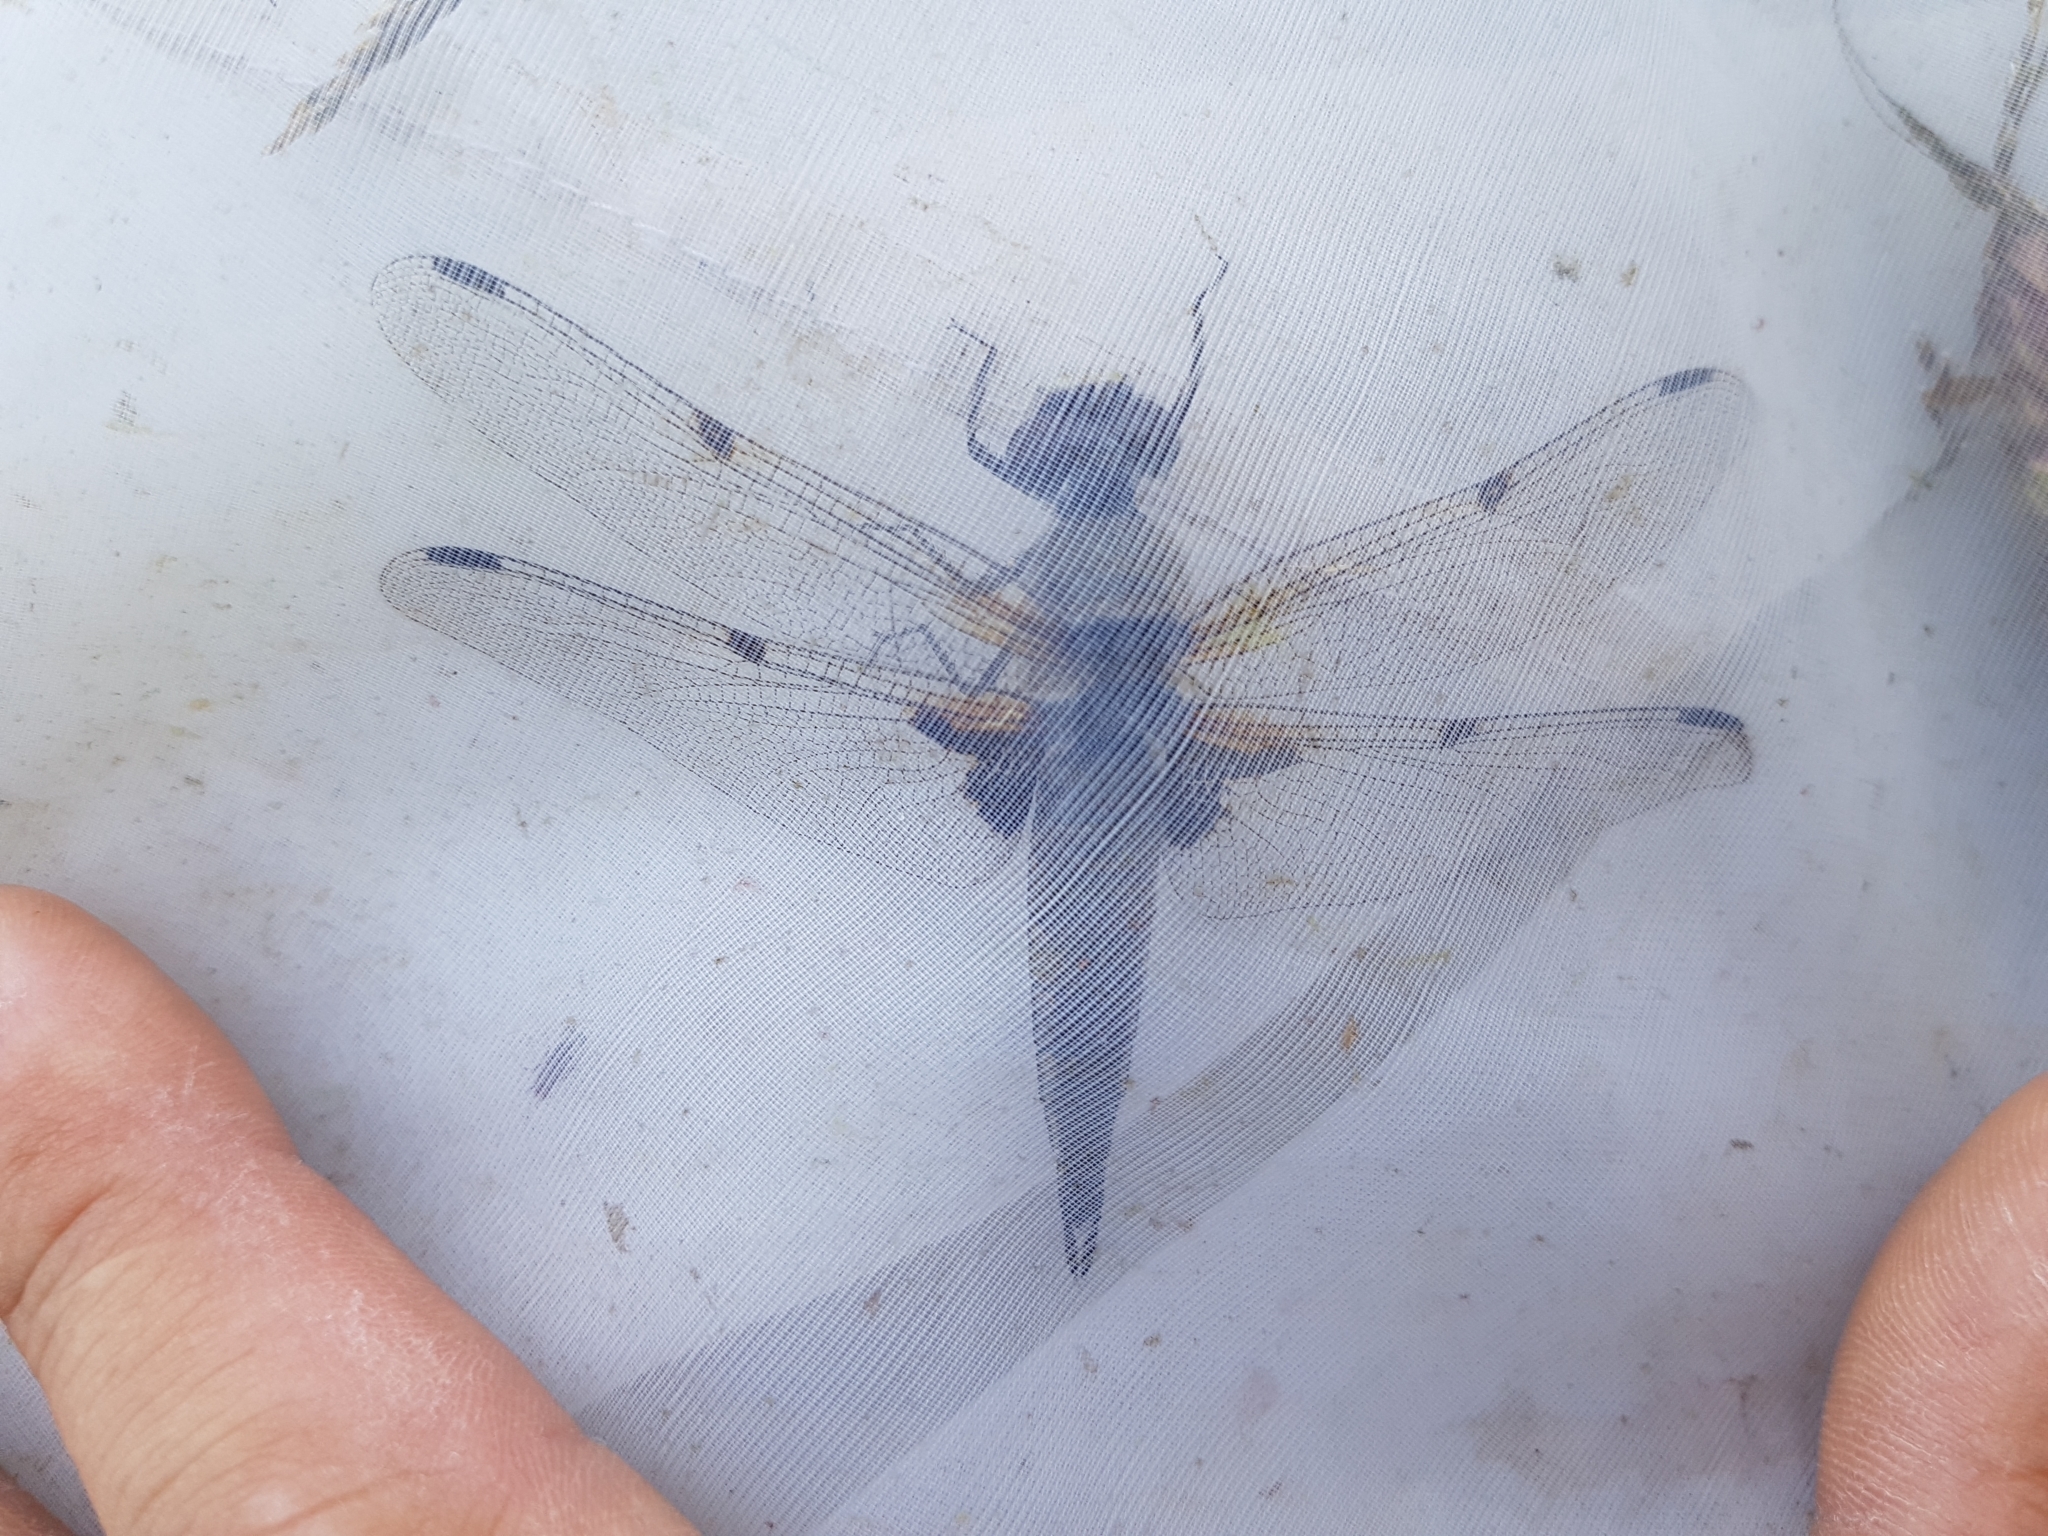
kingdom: Animalia
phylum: Arthropoda
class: Insecta
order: Odonata
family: Libellulidae
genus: Libellula
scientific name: Libellula quadrimaculata
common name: Four-spotted chaser
